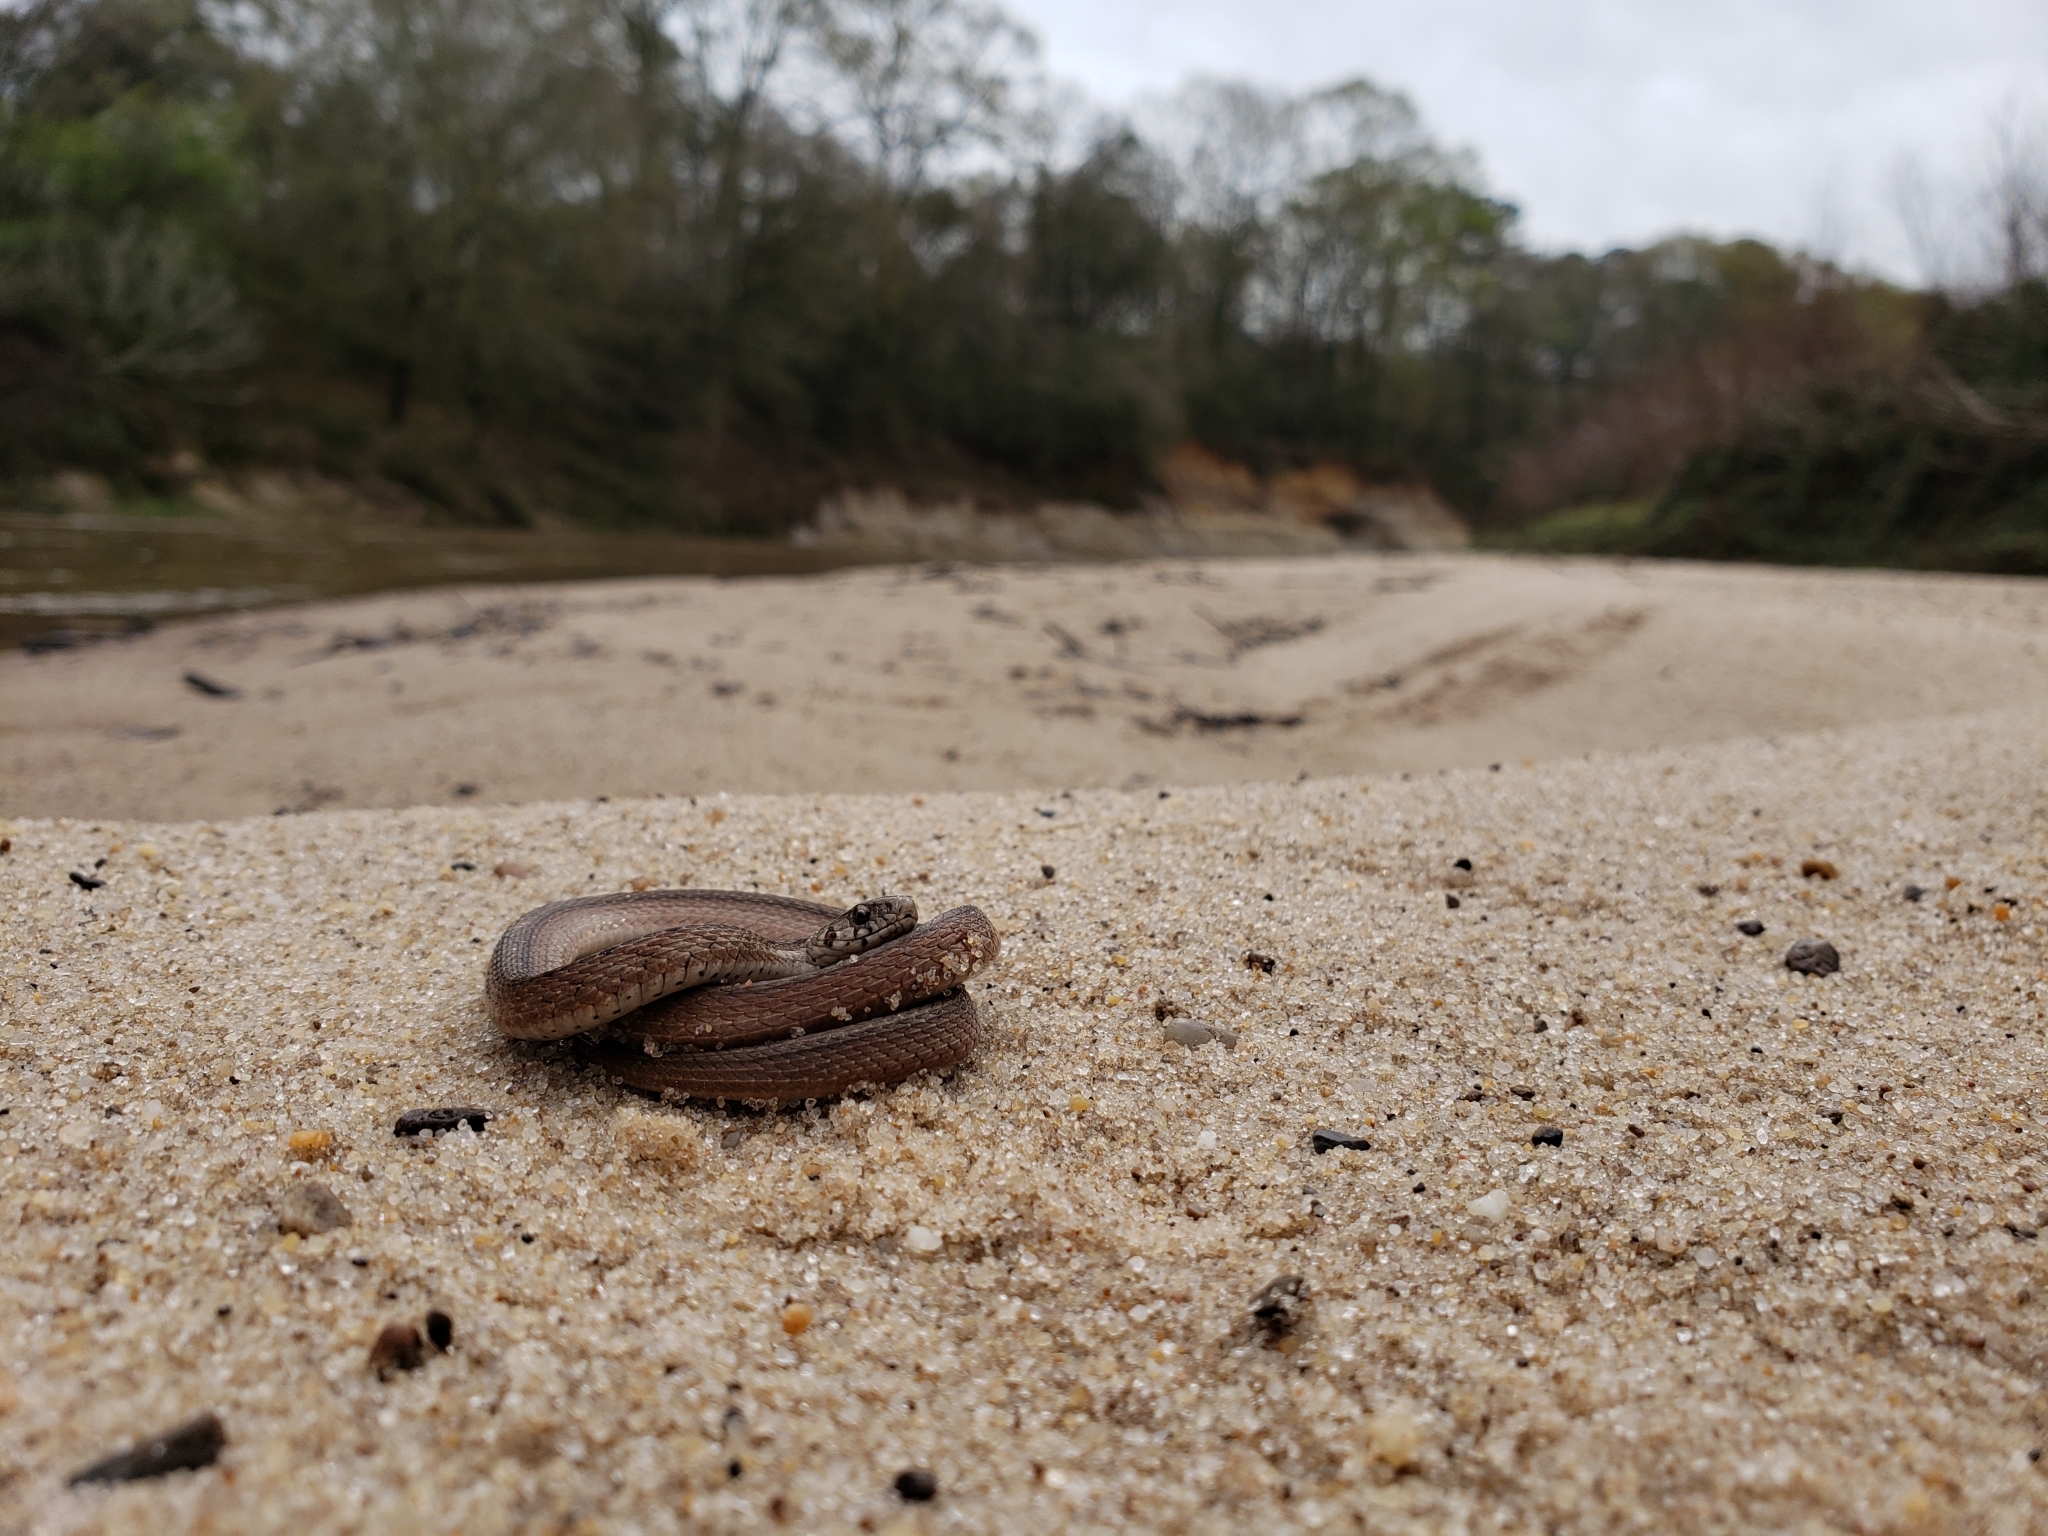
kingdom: Animalia
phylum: Chordata
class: Squamata
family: Colubridae
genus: Storeria
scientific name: Storeria dekayi
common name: (dekay’s) brown snake
